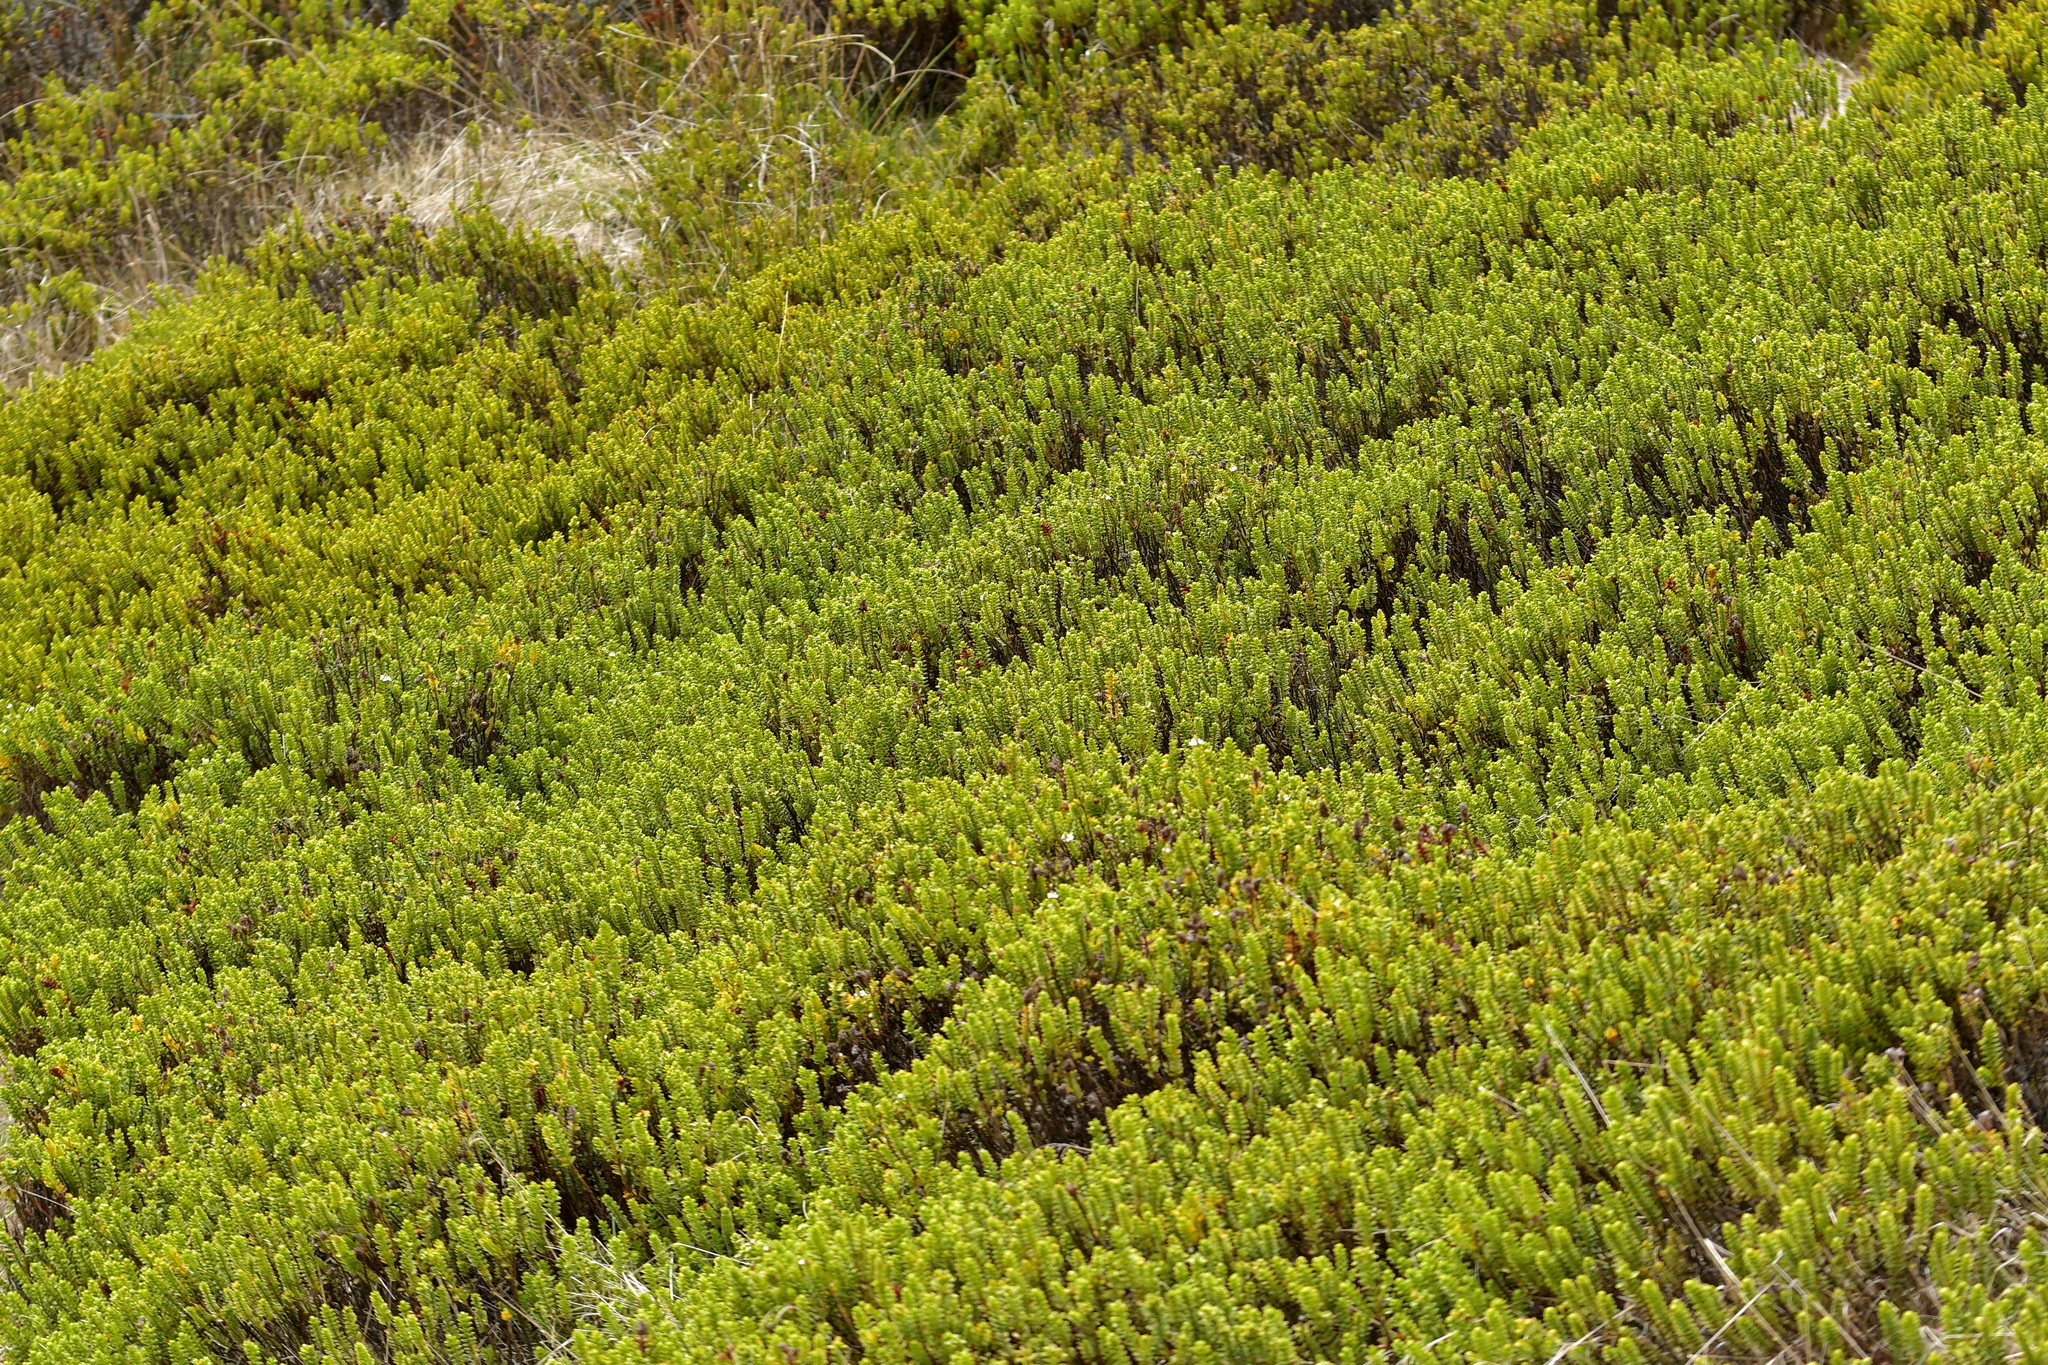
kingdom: Plantae
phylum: Tracheophyta
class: Magnoliopsida
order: Lamiales
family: Plantaginaceae
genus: Veronica
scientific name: Veronica masoniae
